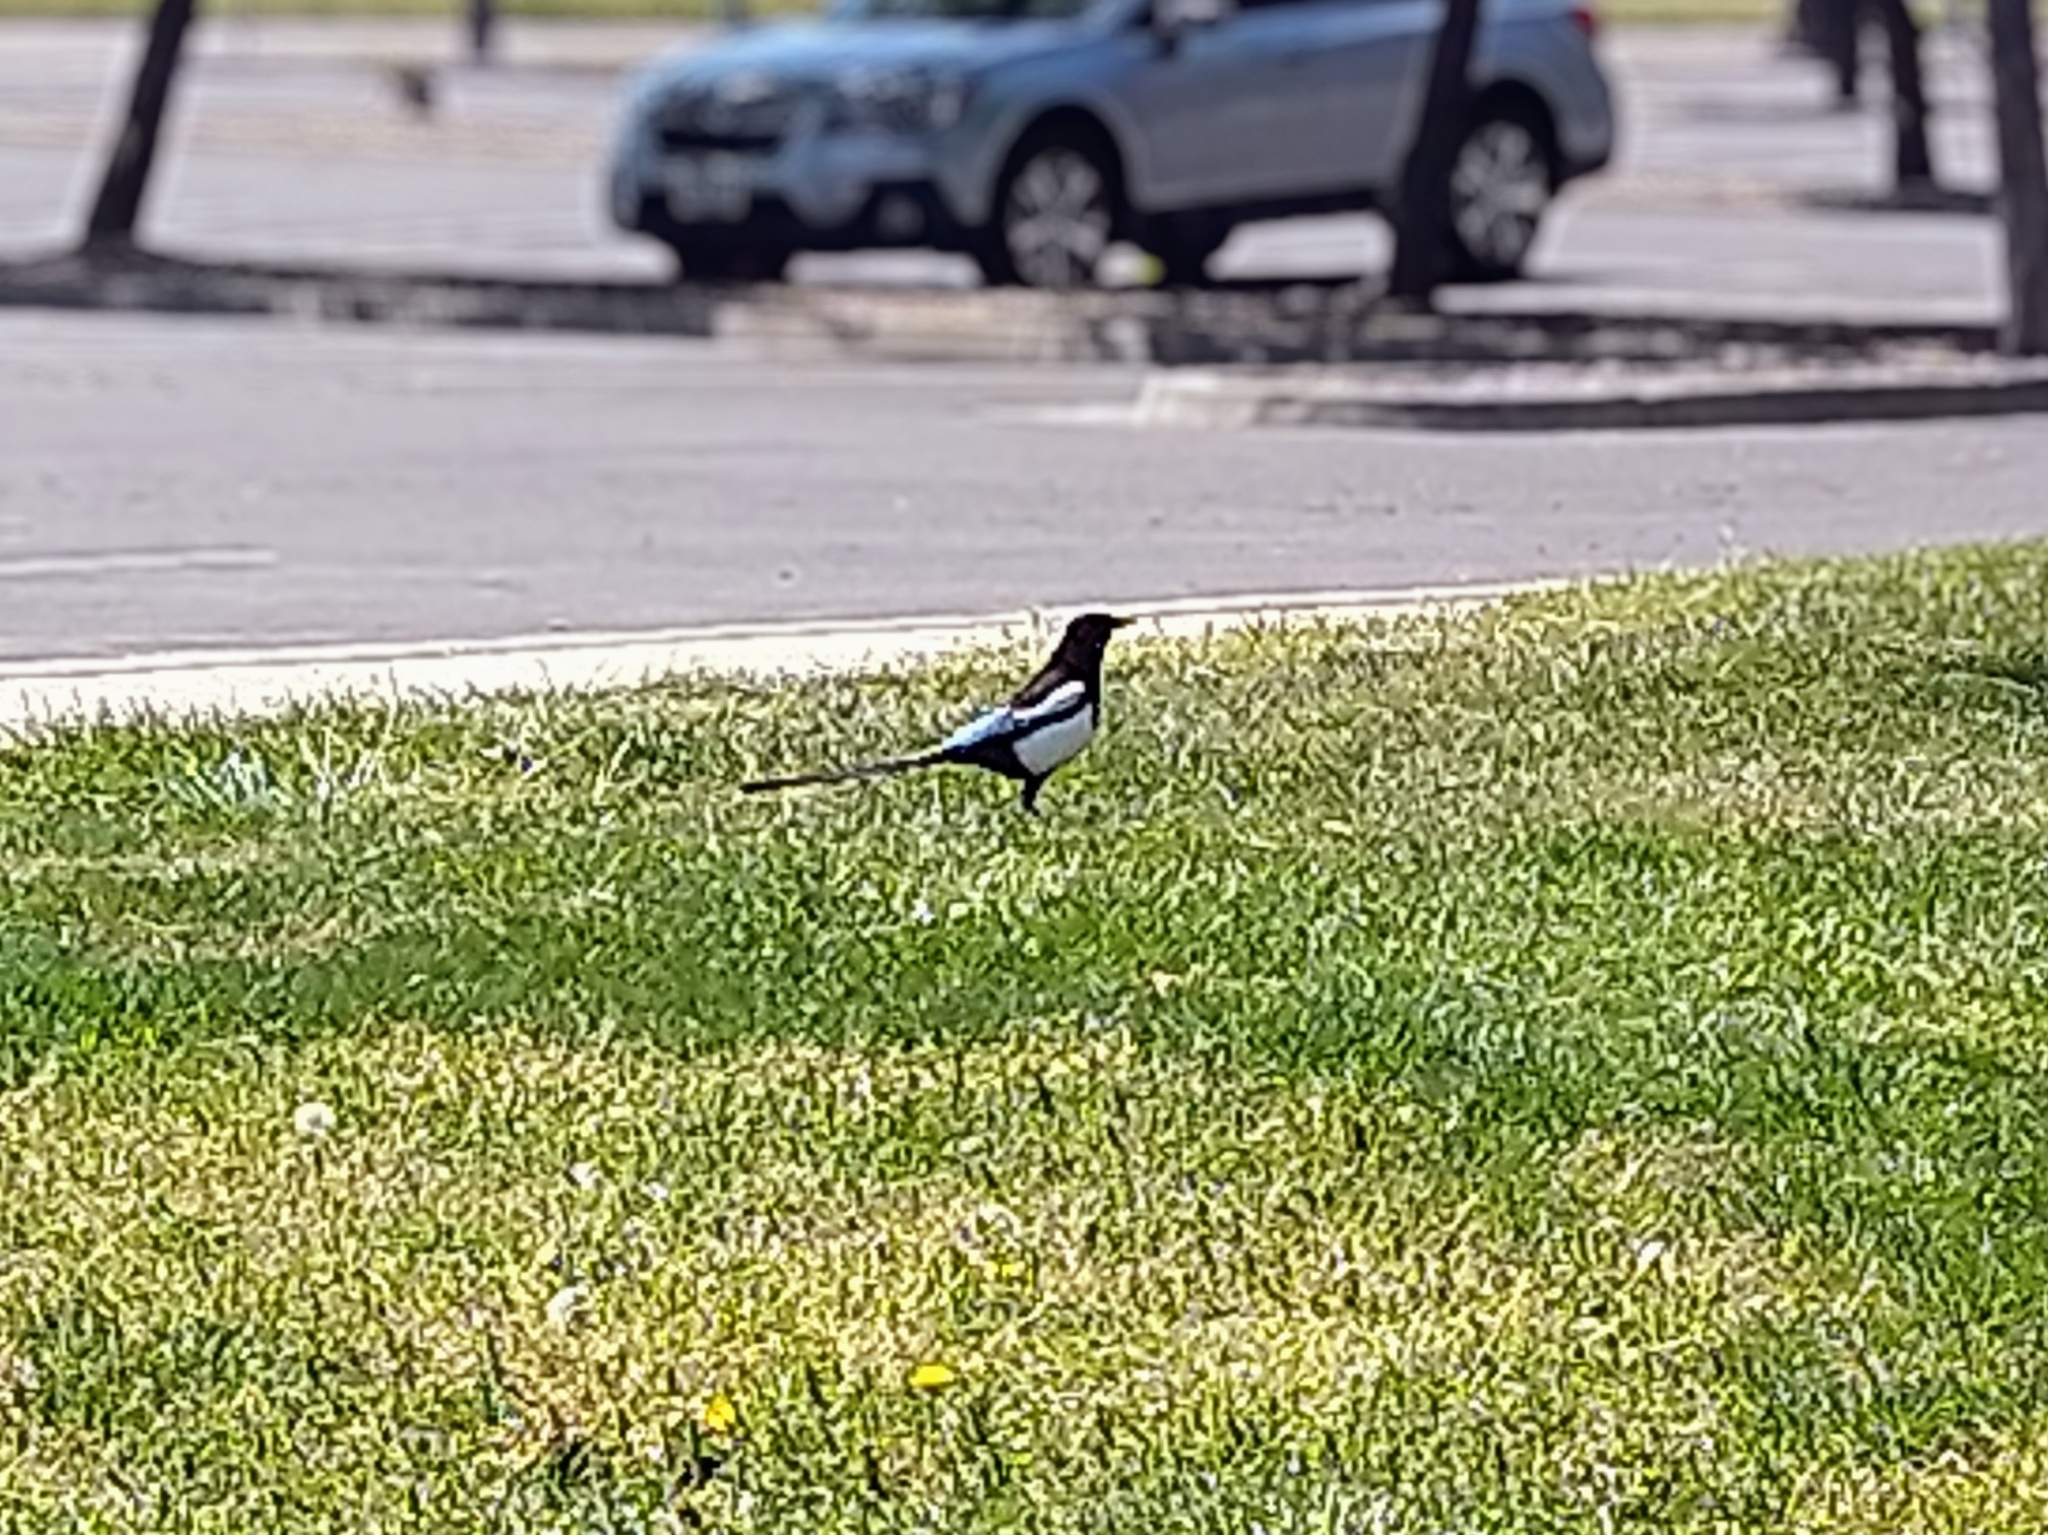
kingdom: Animalia
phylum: Chordata
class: Aves
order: Passeriformes
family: Corvidae
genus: Pica
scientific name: Pica nuttalli
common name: Yellow-billed magpie
